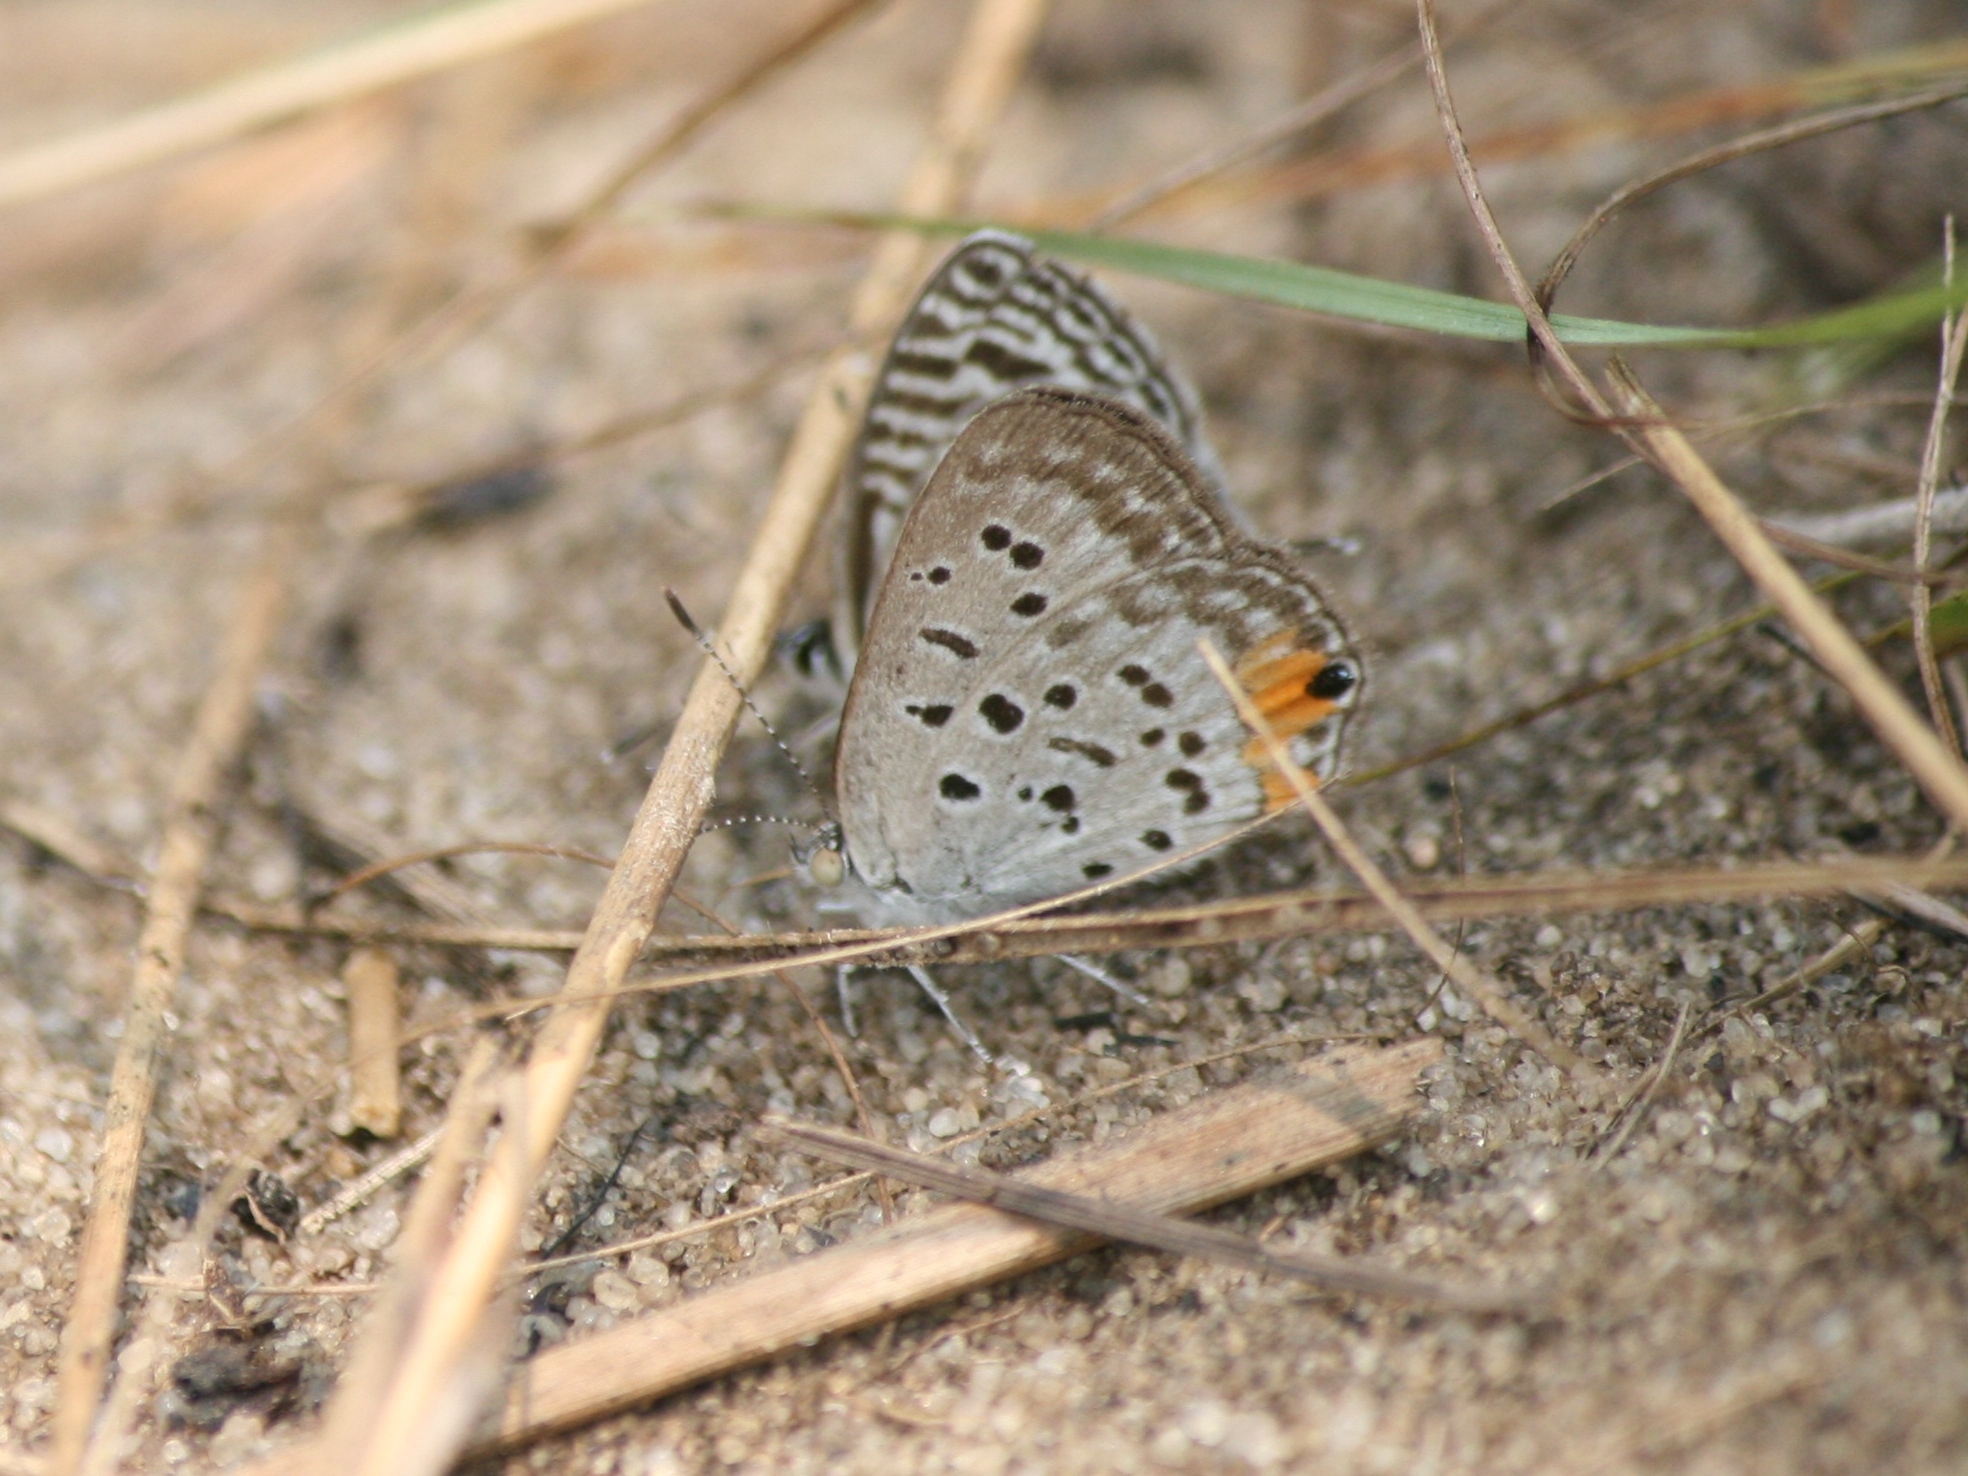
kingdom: Animalia
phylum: Arthropoda
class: Insecta
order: Lepidoptera
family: Lycaenidae
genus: Cupido
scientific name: Cupido cissus
